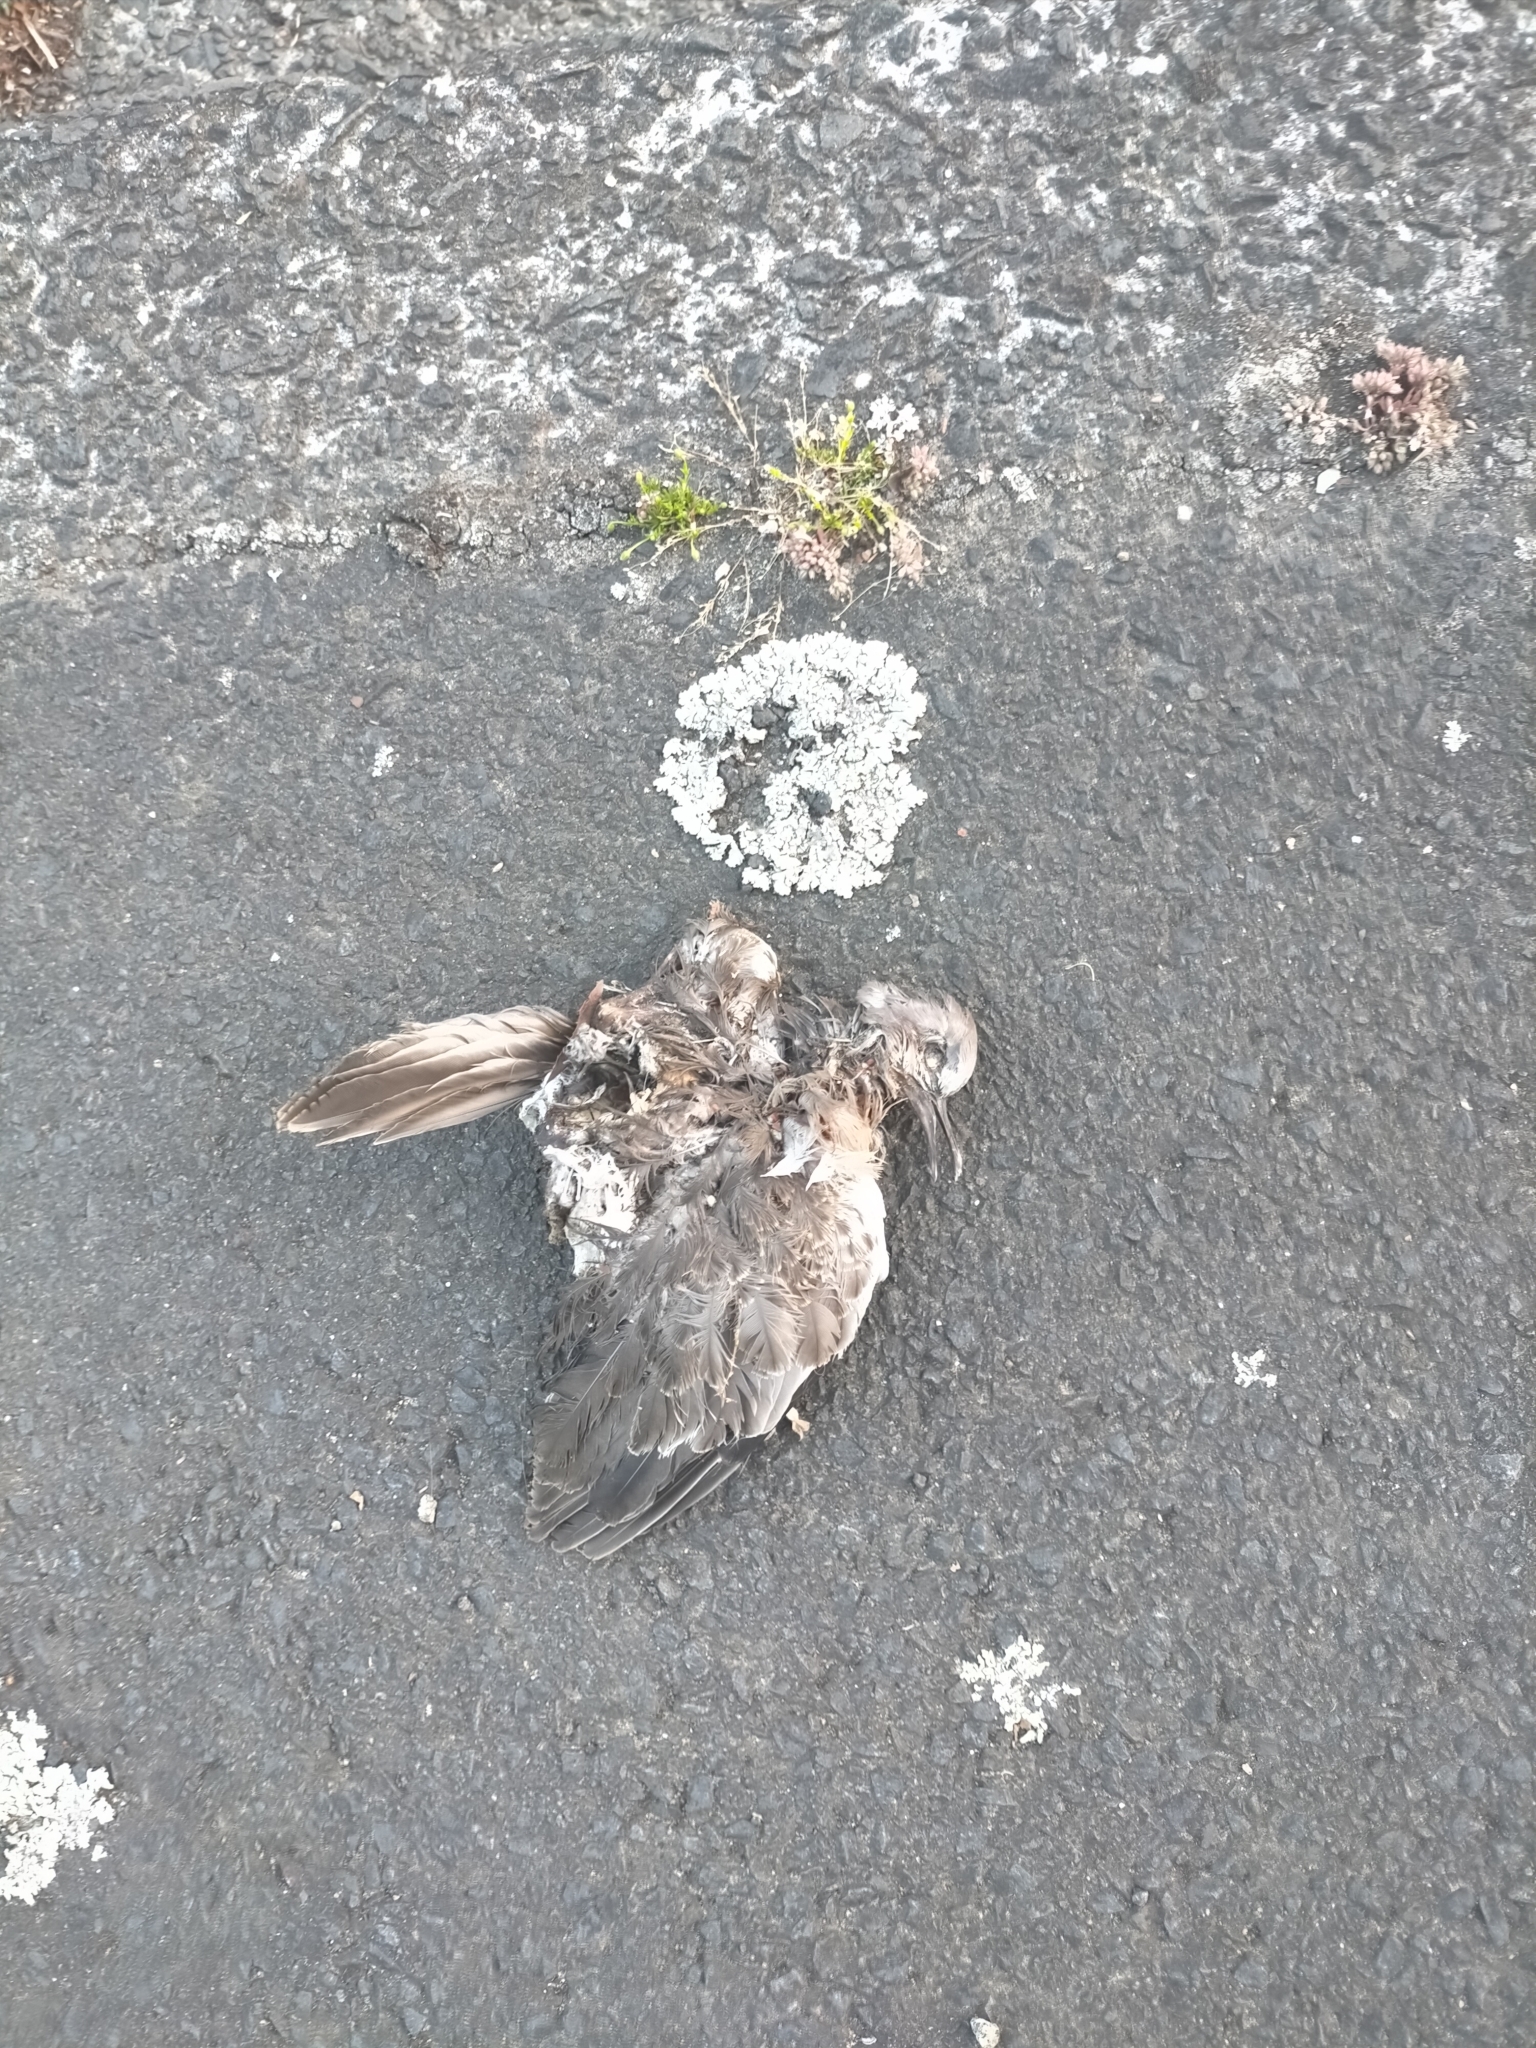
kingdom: Animalia
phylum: Chordata
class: Aves
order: Columbiformes
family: Columbidae
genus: Spilopelia
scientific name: Spilopelia chinensis
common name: Spotted dove
